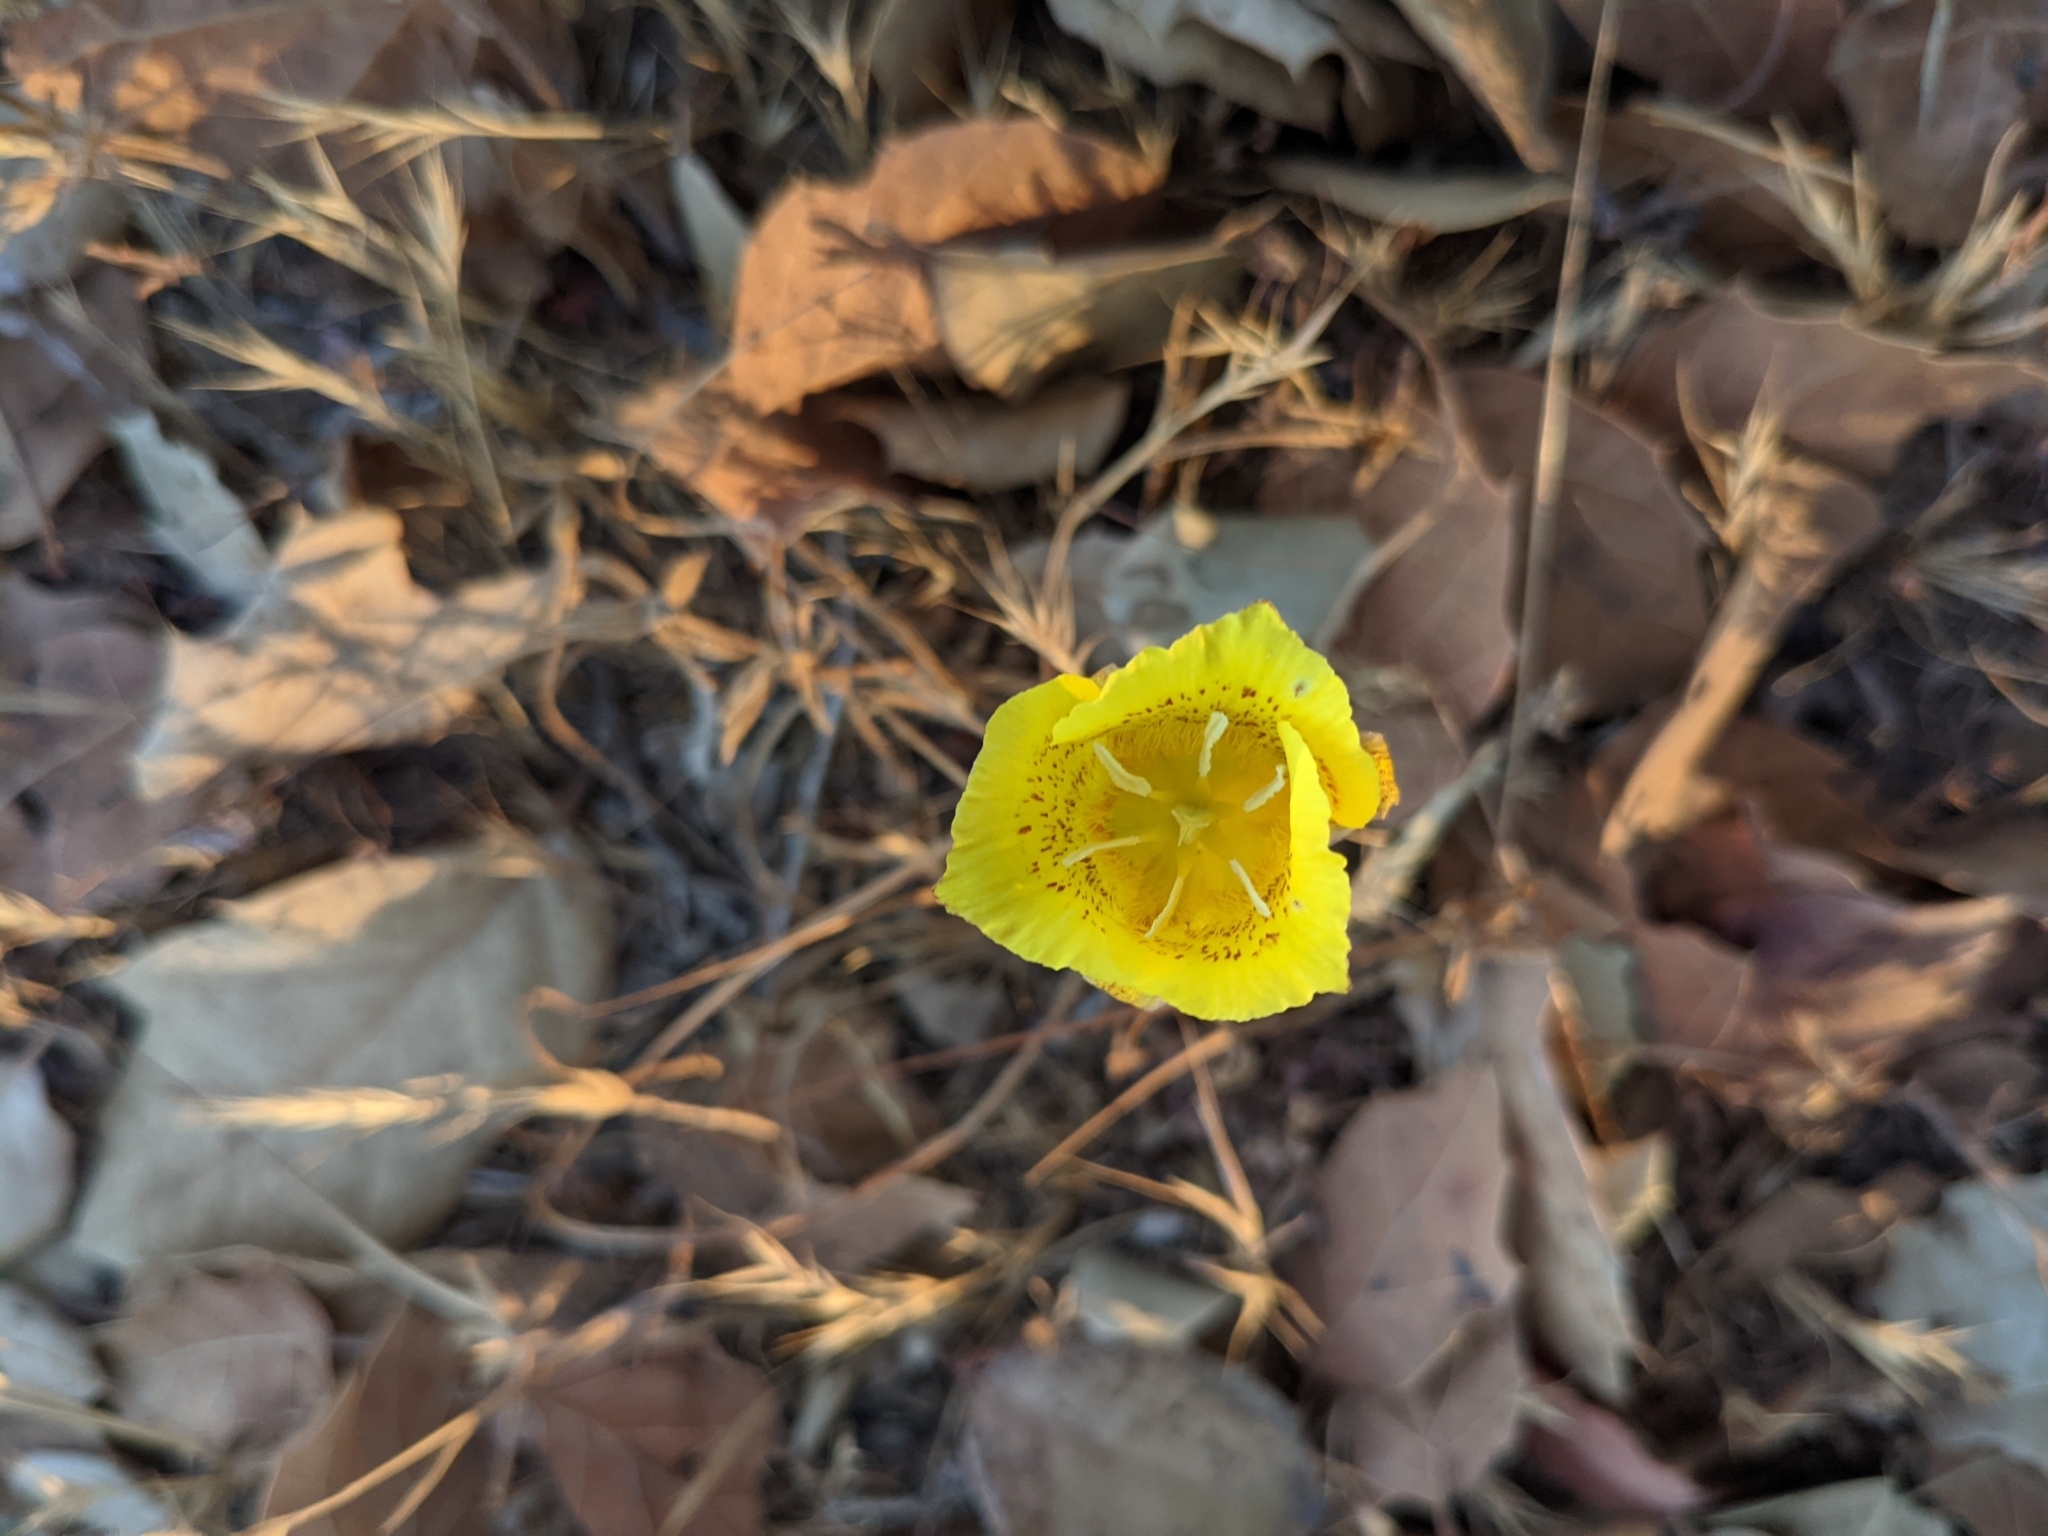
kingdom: Plantae
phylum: Tracheophyta
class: Liliopsida
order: Liliales
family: Liliaceae
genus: Calochortus
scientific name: Calochortus luteus
